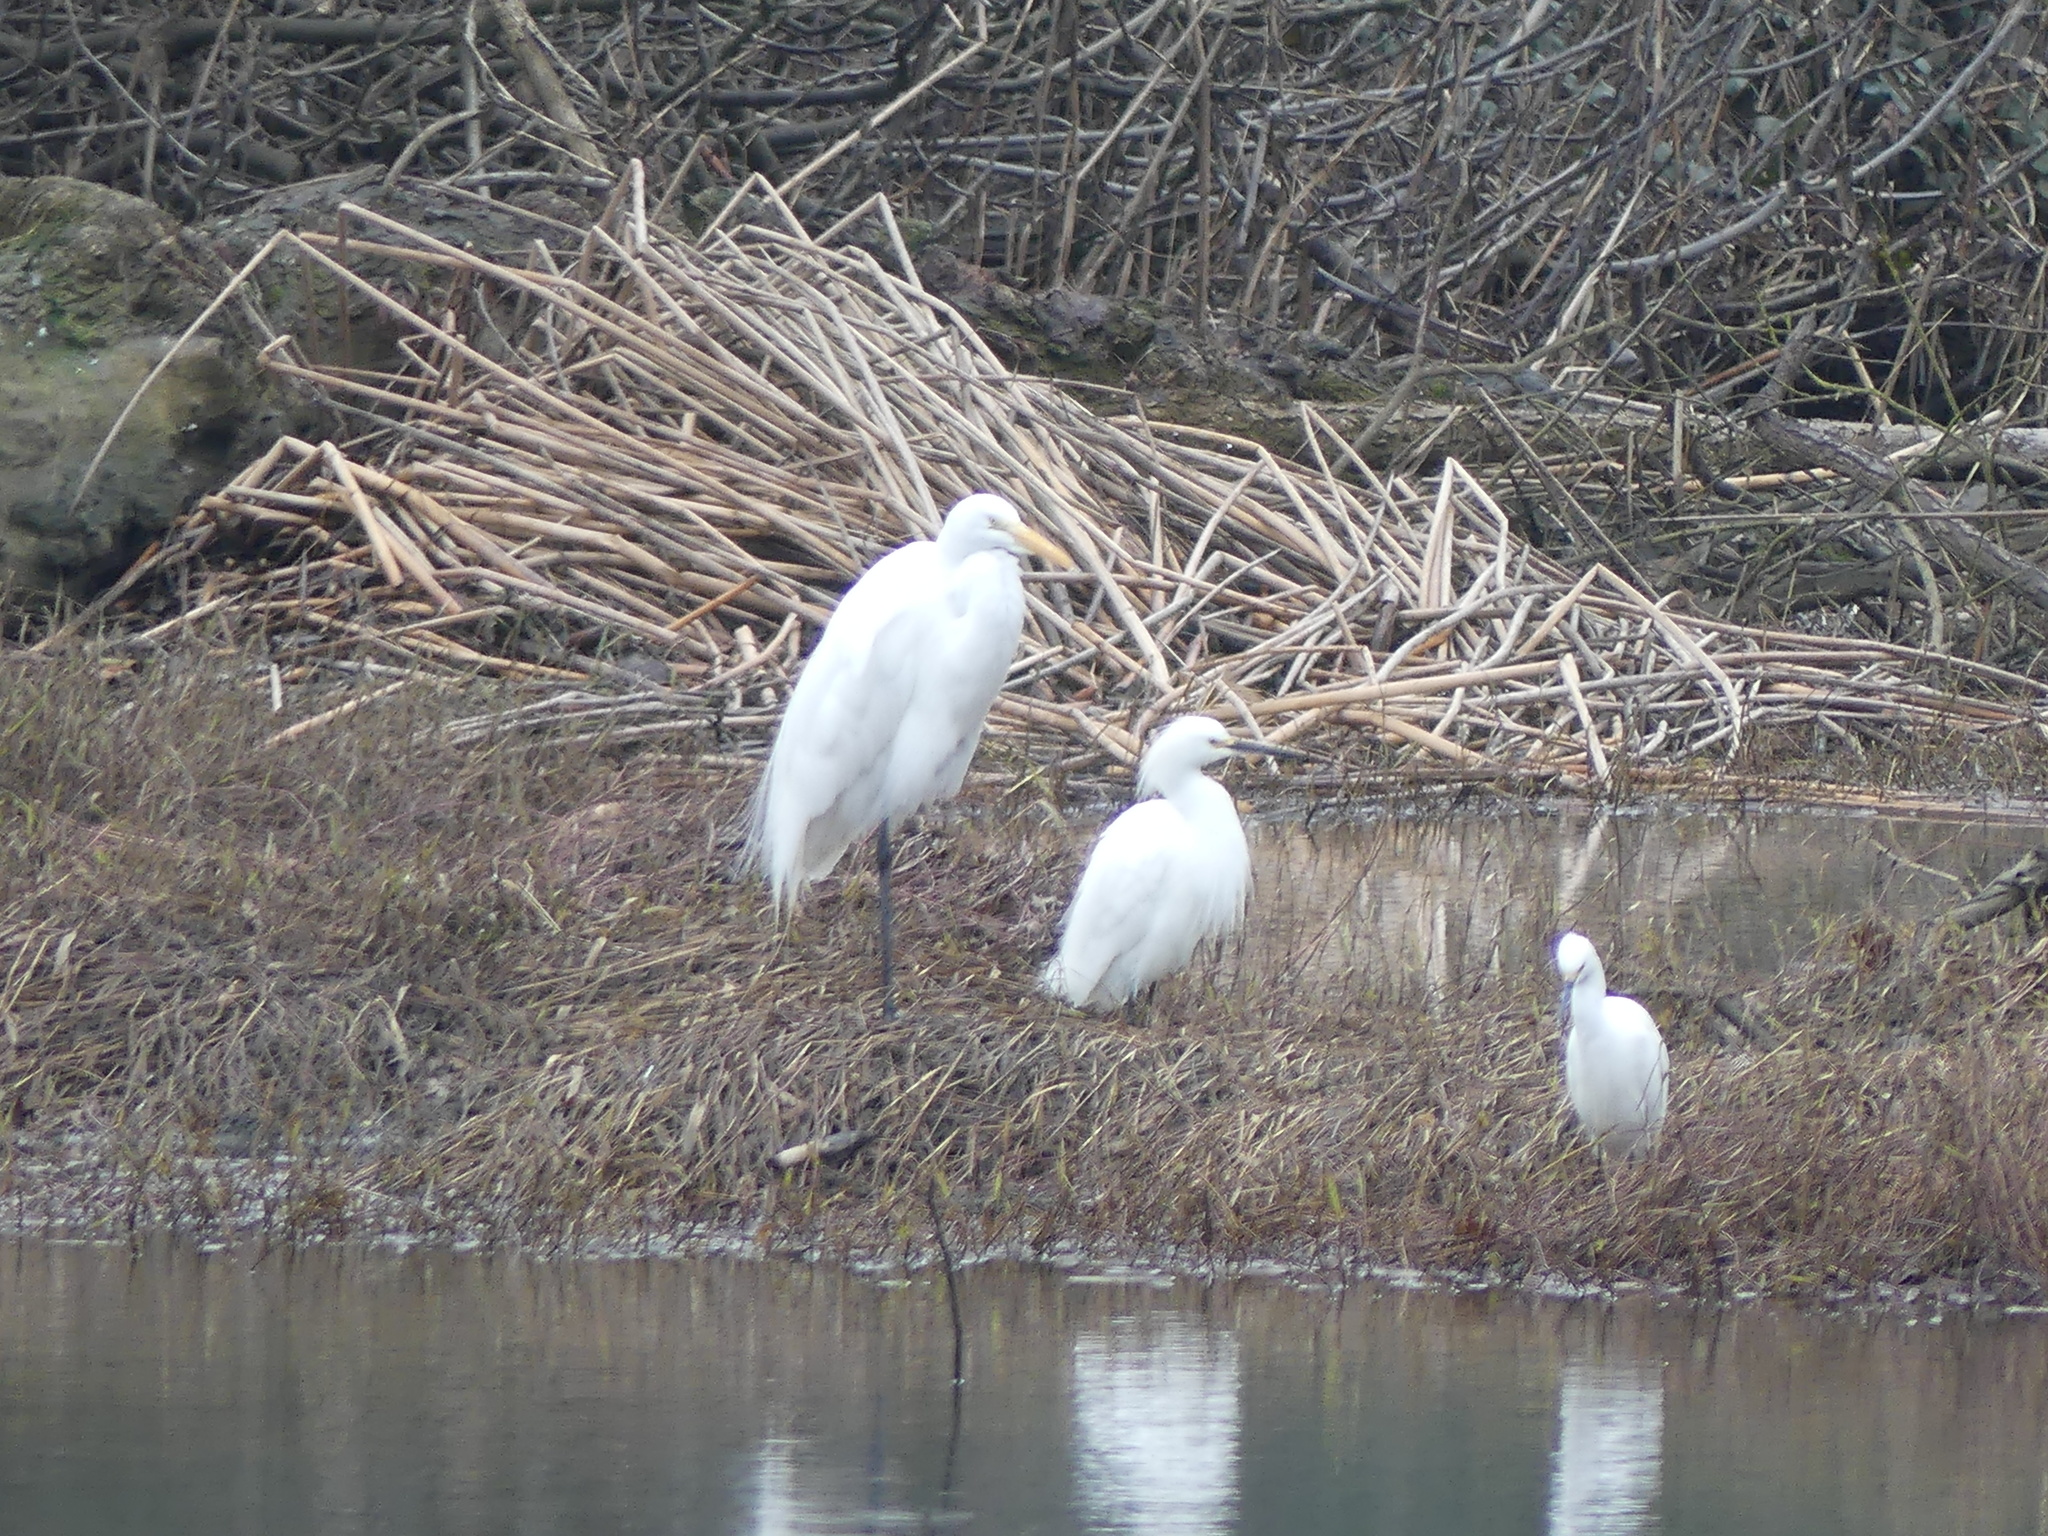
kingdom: Animalia
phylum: Chordata
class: Aves
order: Pelecaniformes
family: Ardeidae
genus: Ardea
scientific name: Ardea alba
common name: Great egret
